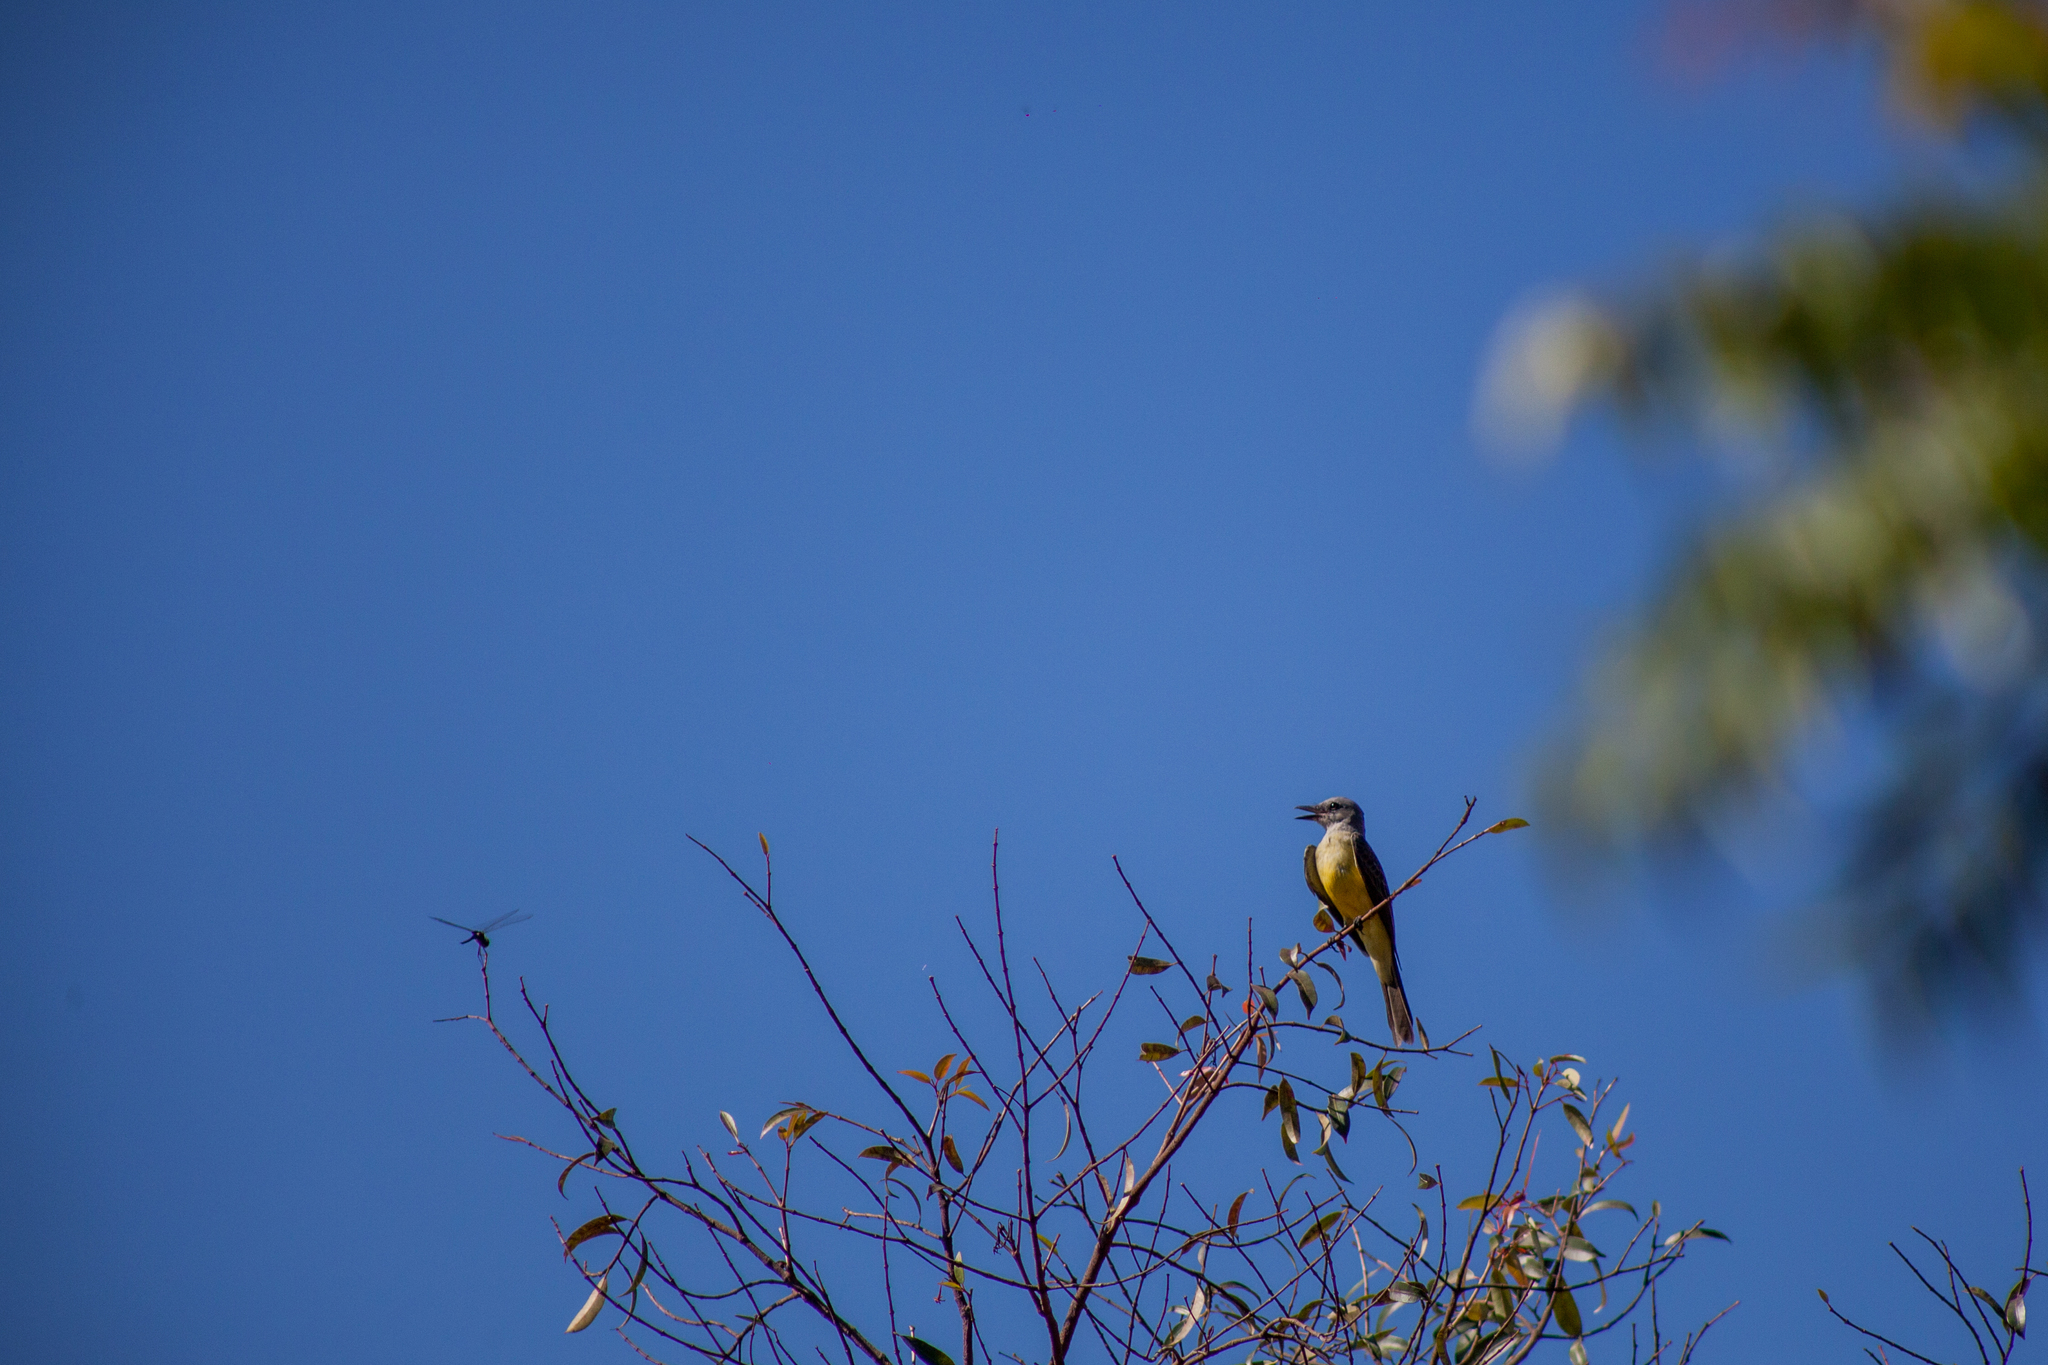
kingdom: Animalia
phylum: Chordata
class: Aves
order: Passeriformes
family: Tyrannidae
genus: Tyrannus
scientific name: Tyrannus melancholicus
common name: Tropical kingbird
